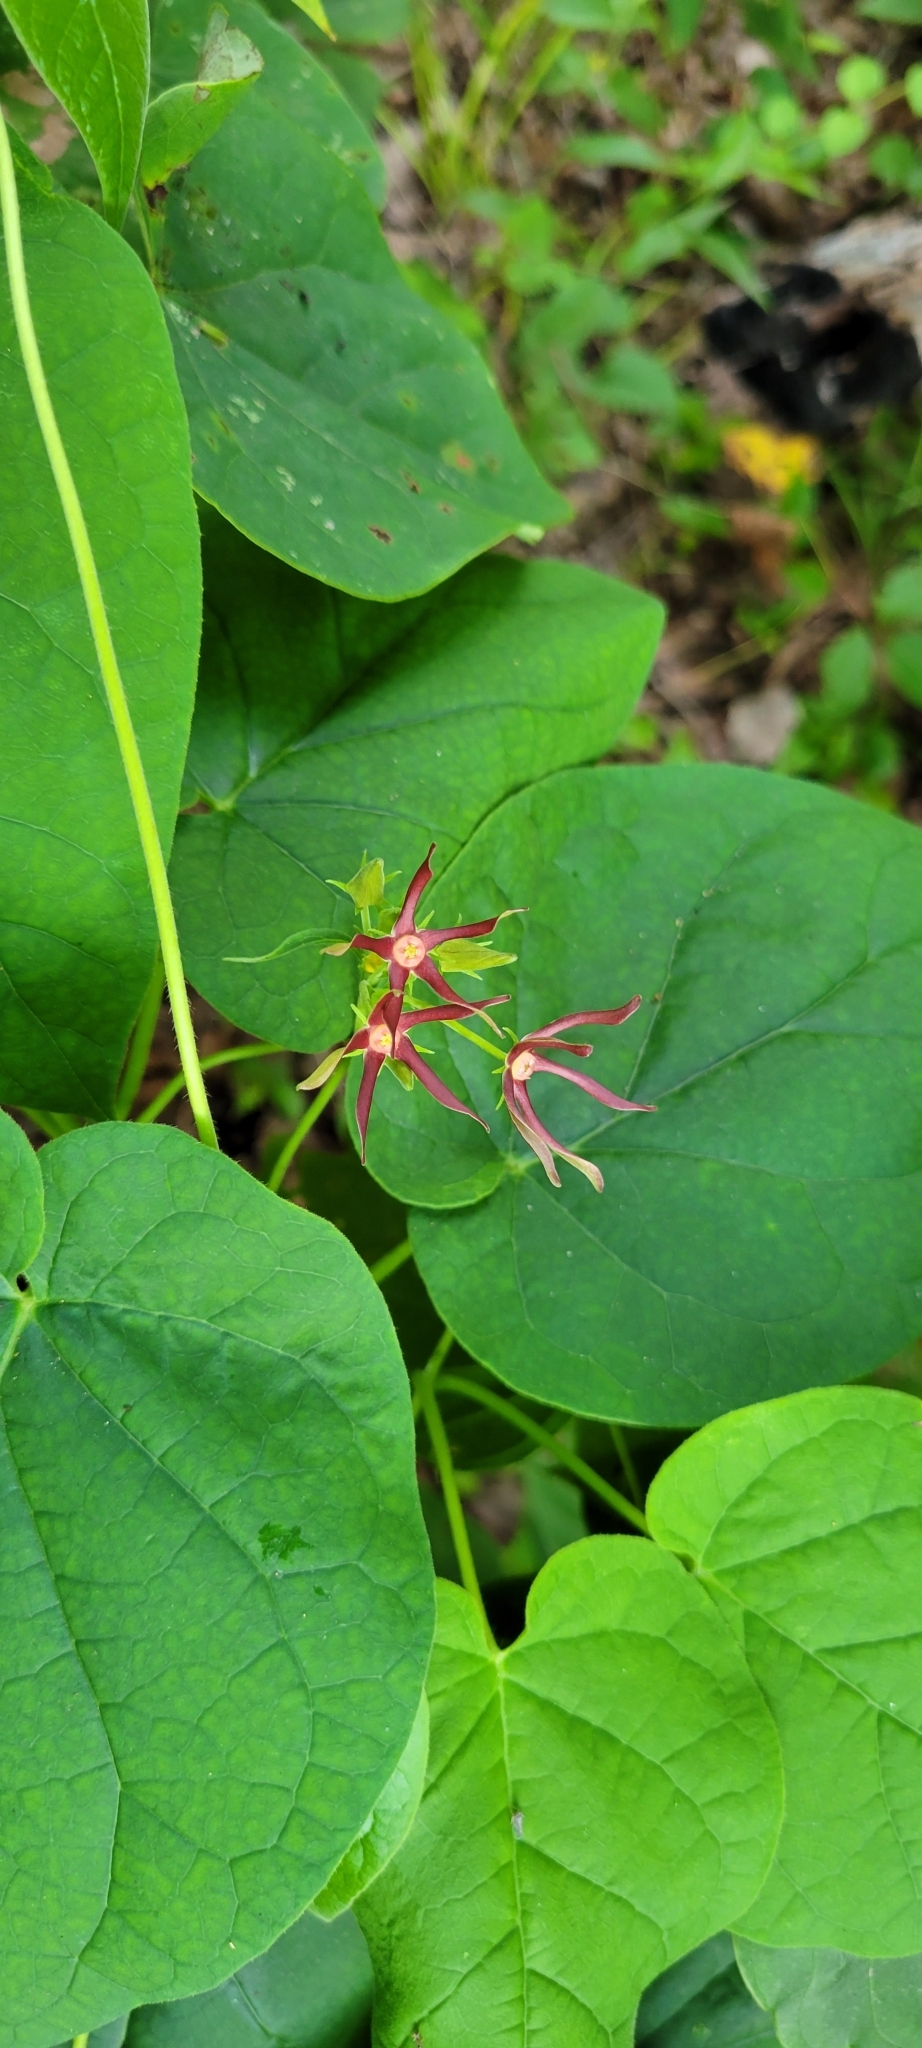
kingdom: Plantae
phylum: Tracheophyta
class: Magnoliopsida
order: Gentianales
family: Apocynaceae
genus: Matelea
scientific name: Matelea obliqua
